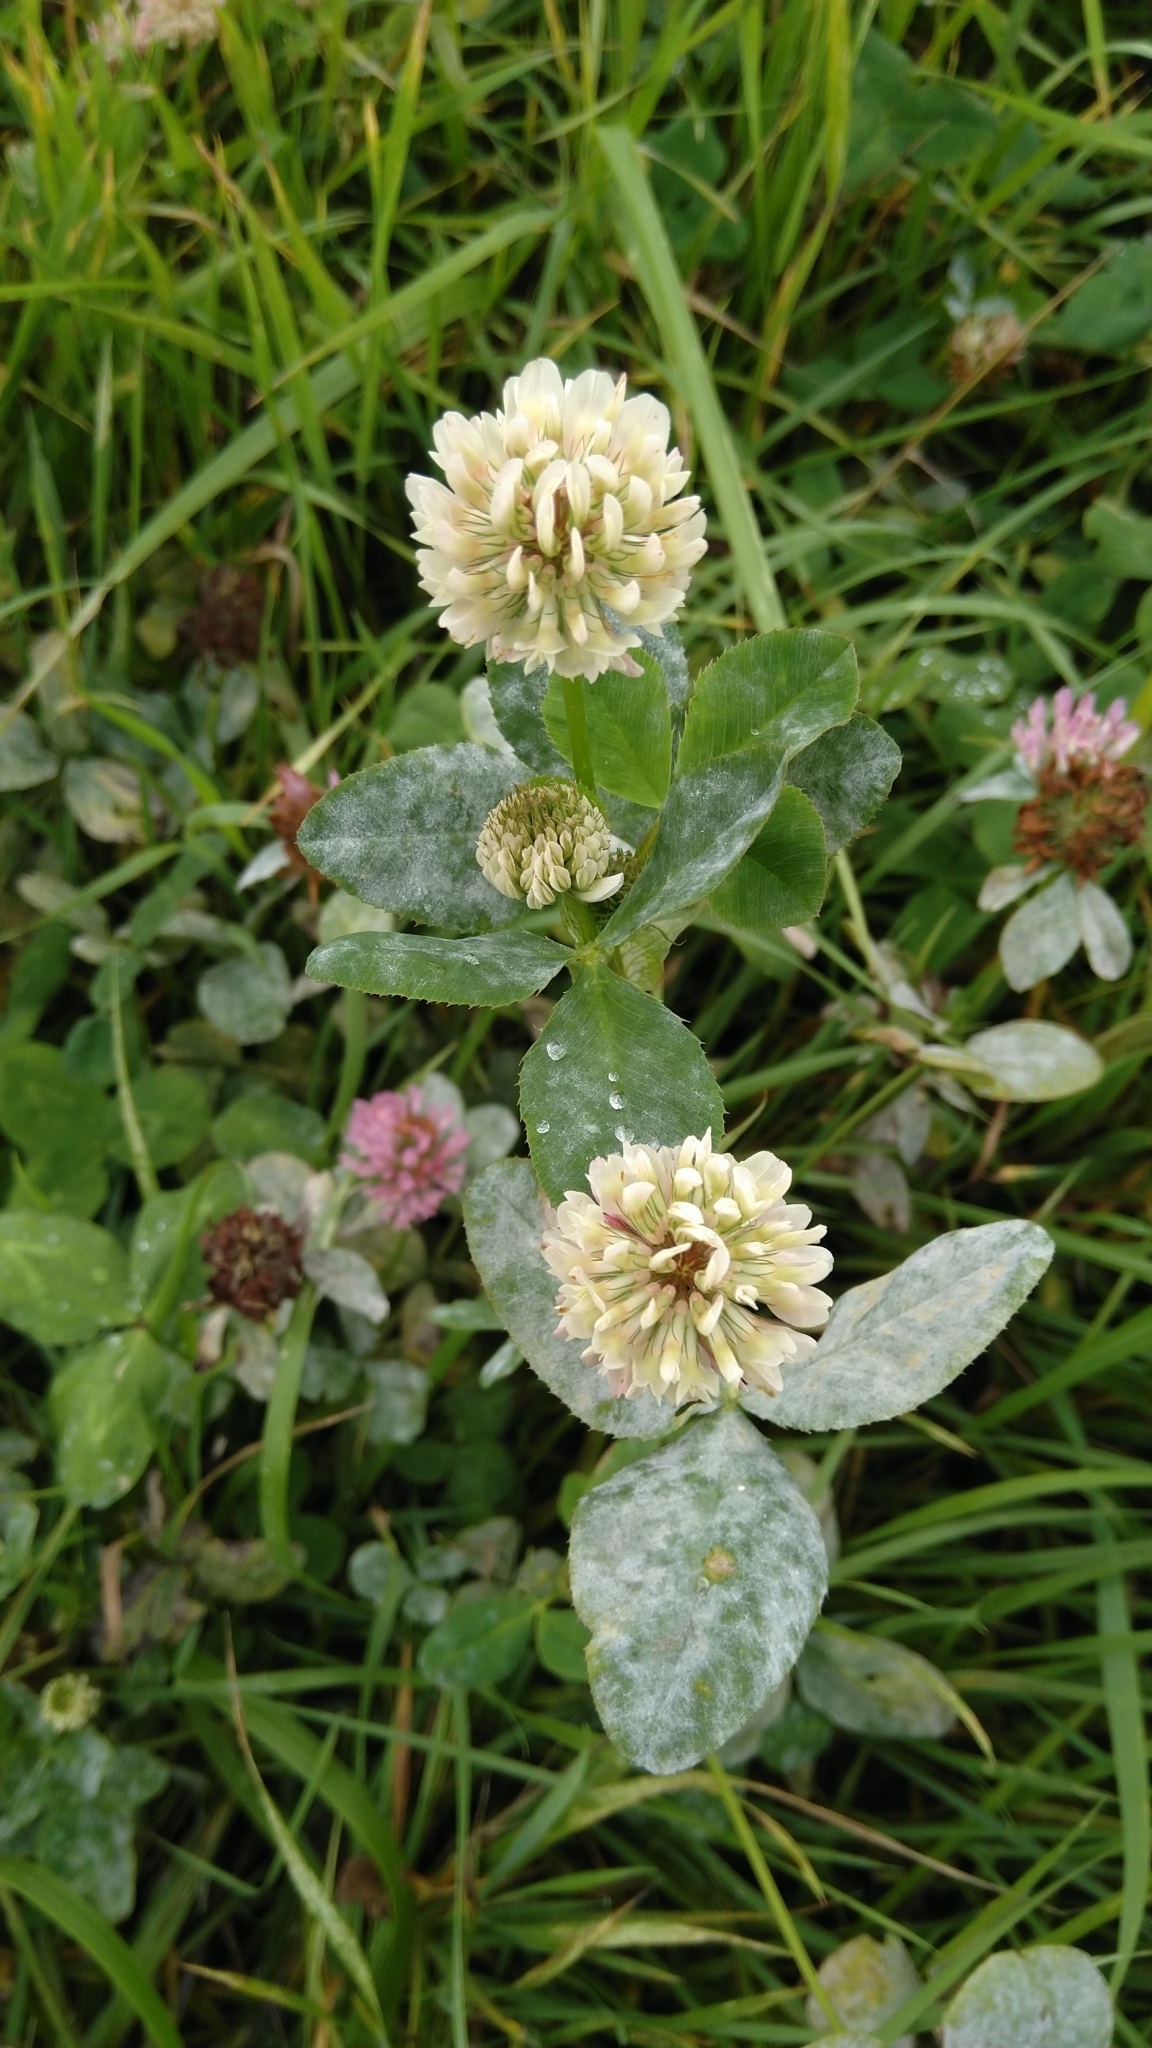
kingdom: Plantae
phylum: Tracheophyta
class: Magnoliopsida
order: Fabales
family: Fabaceae
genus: Trifolium
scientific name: Trifolium hybridum
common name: Alsike clover
